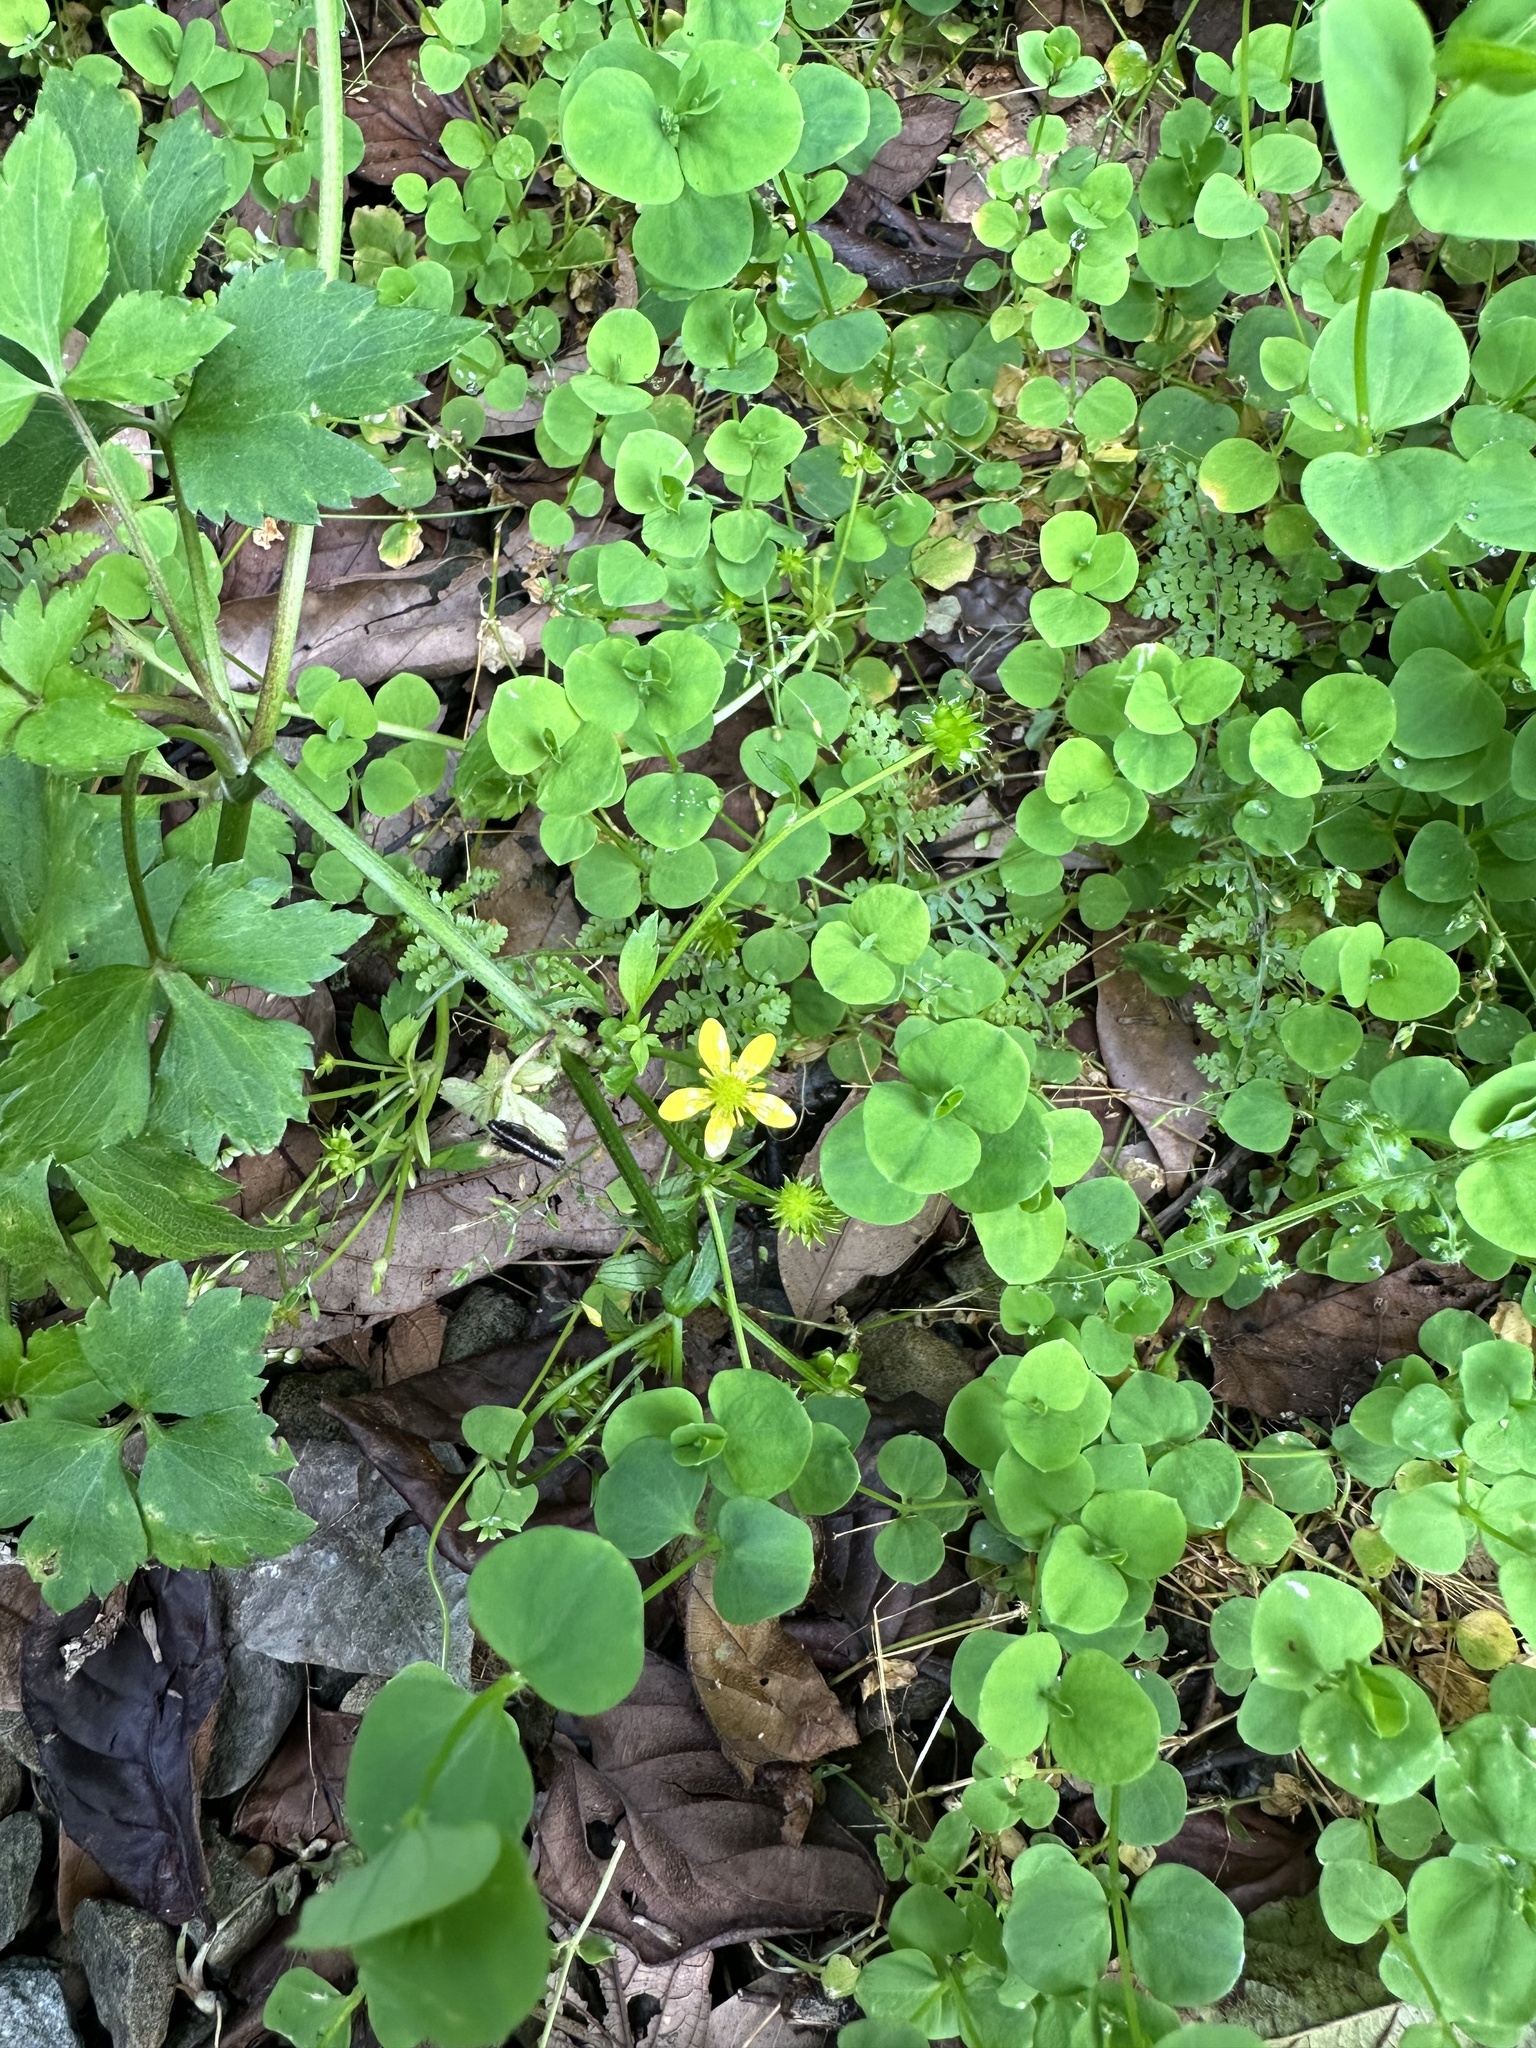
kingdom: Plantae
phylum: Tracheophyta
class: Magnoliopsida
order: Ranunculales
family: Ranunculaceae
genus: Ranunculus
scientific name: Ranunculus silerifolius
